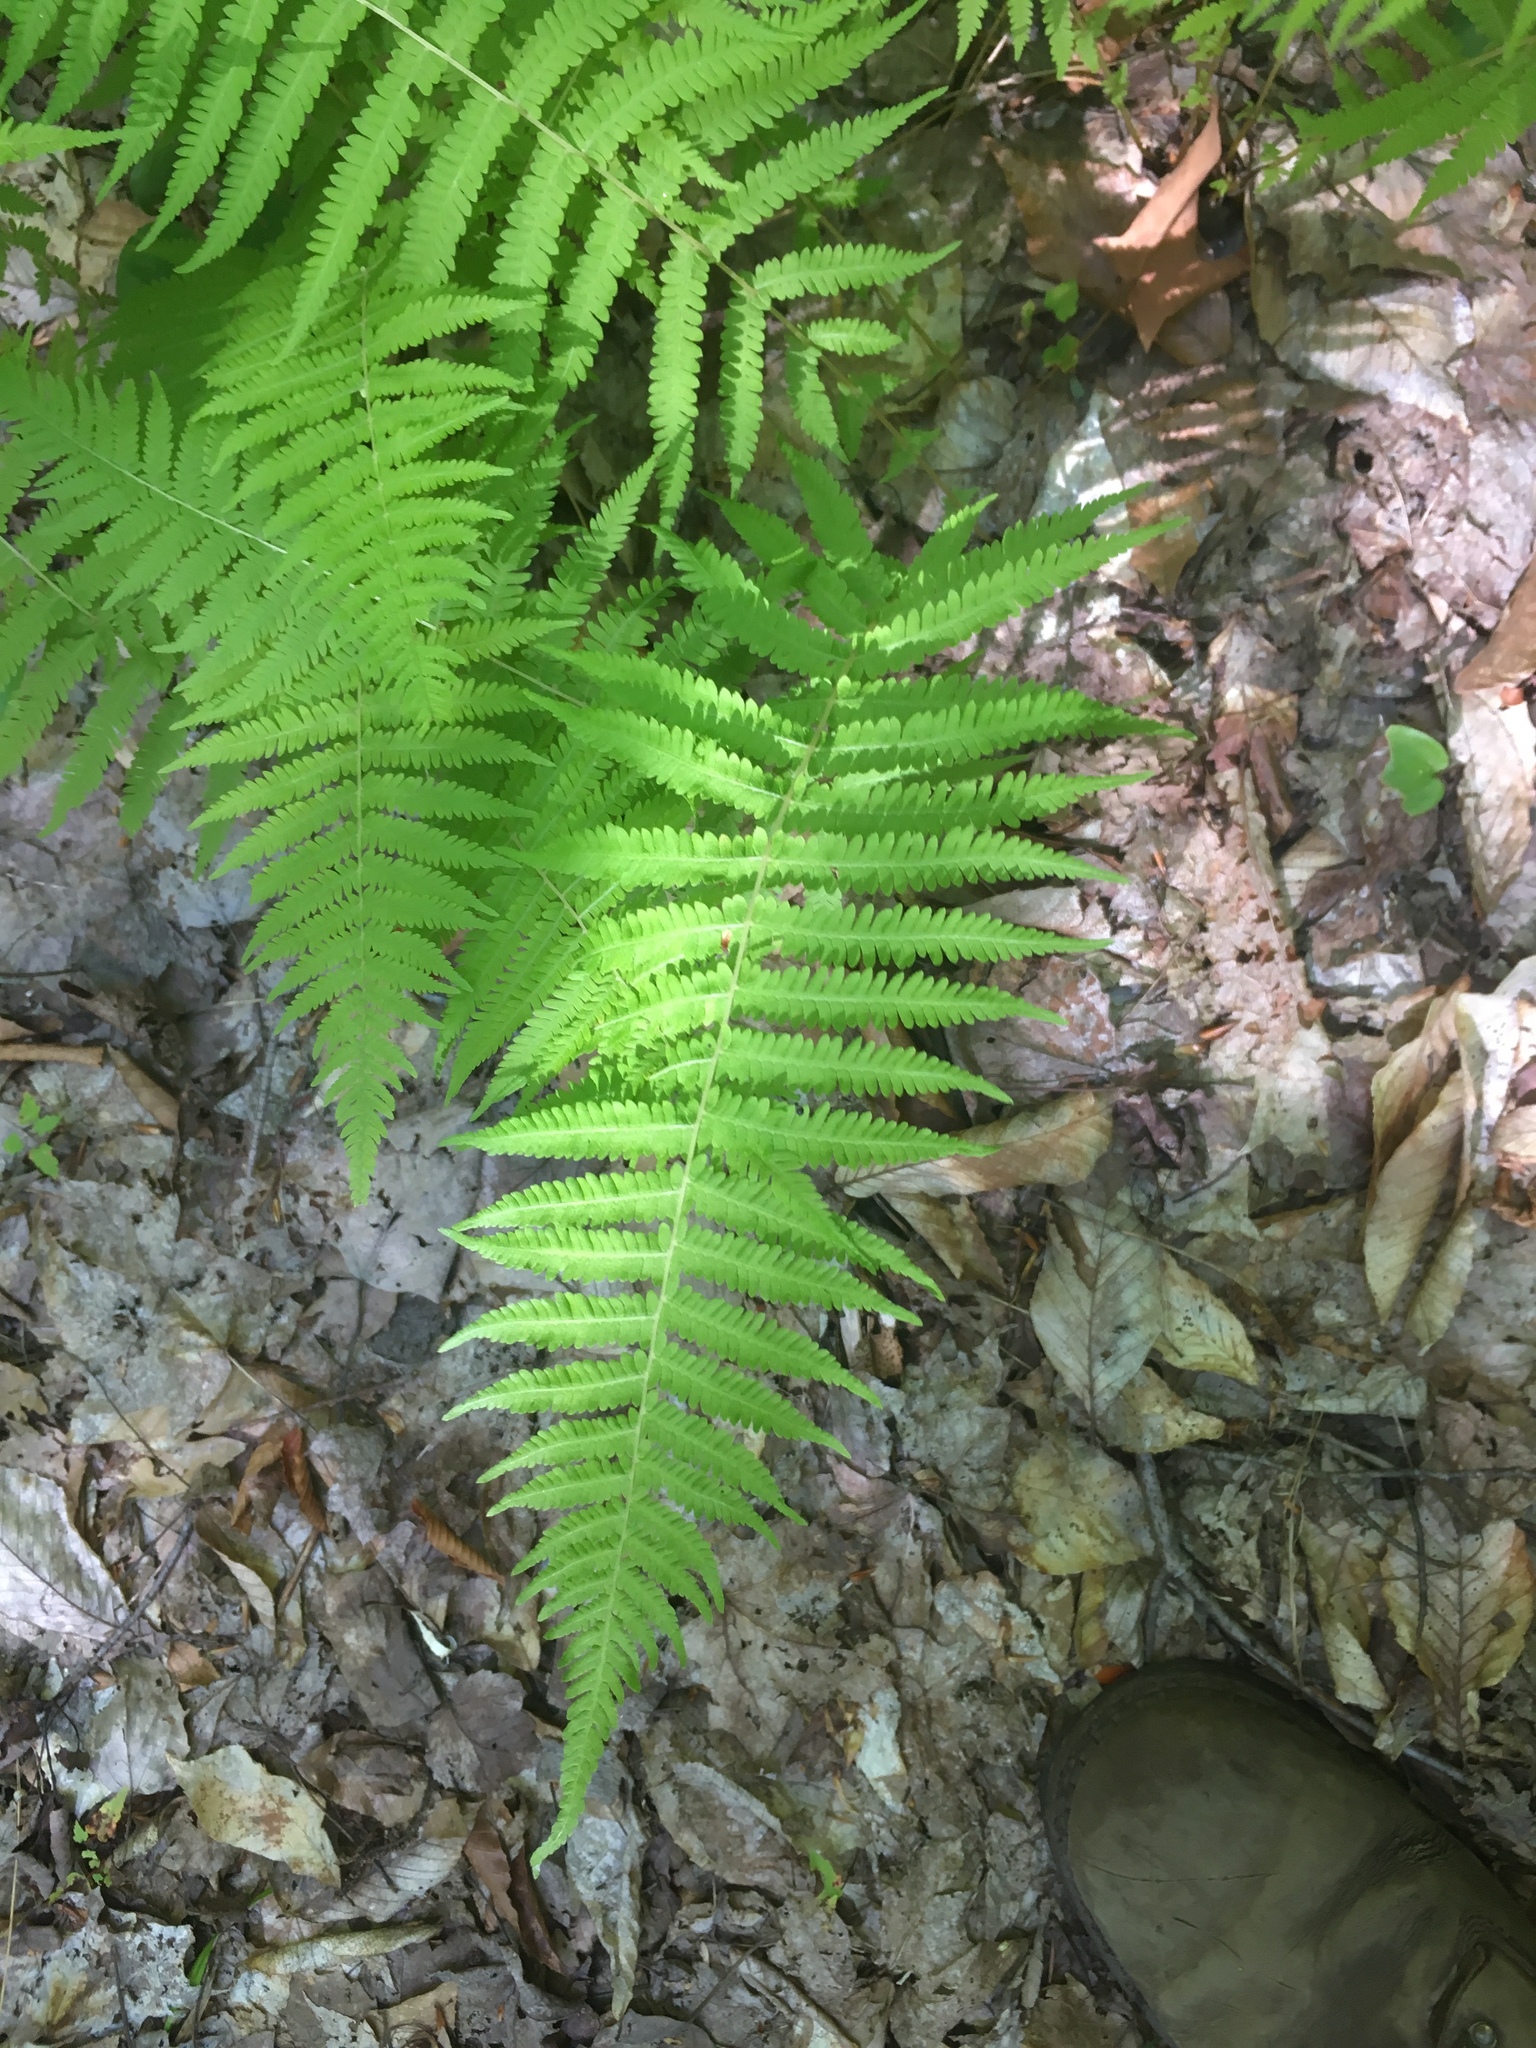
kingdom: Plantae
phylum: Tracheophyta
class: Polypodiopsida
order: Polypodiales
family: Thelypteridaceae
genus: Amauropelta
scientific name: Amauropelta noveboracensis
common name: New york fern
